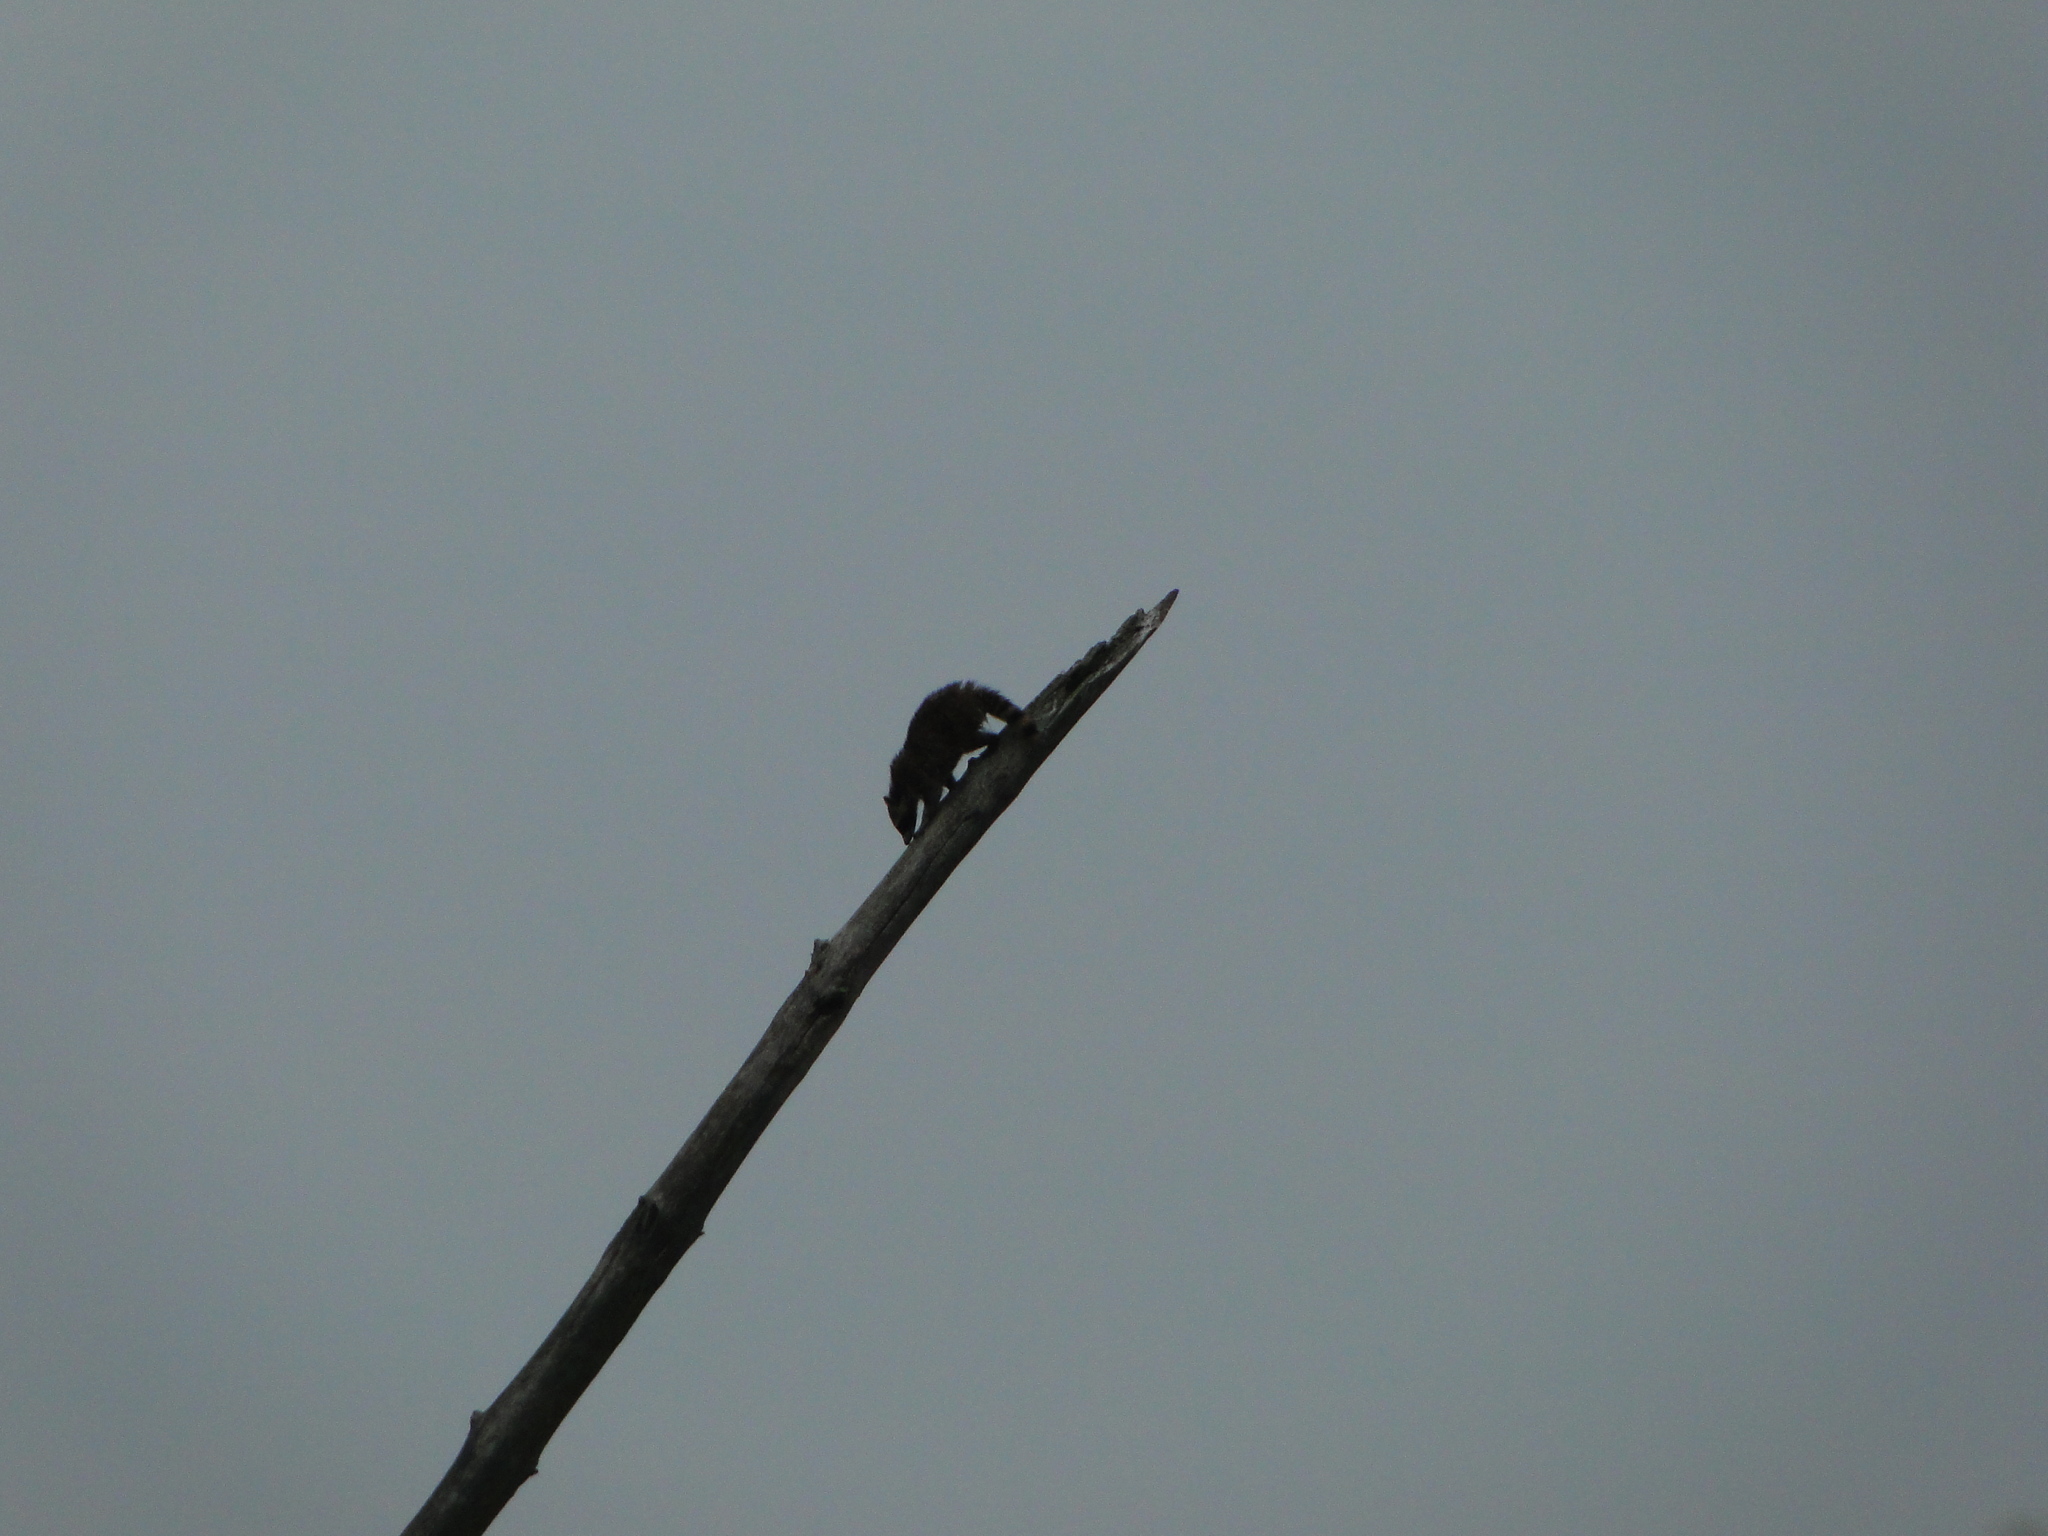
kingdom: Animalia
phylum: Chordata
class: Mammalia
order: Carnivora
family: Procyonidae
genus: Procyon
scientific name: Procyon lotor
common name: Raccoon
